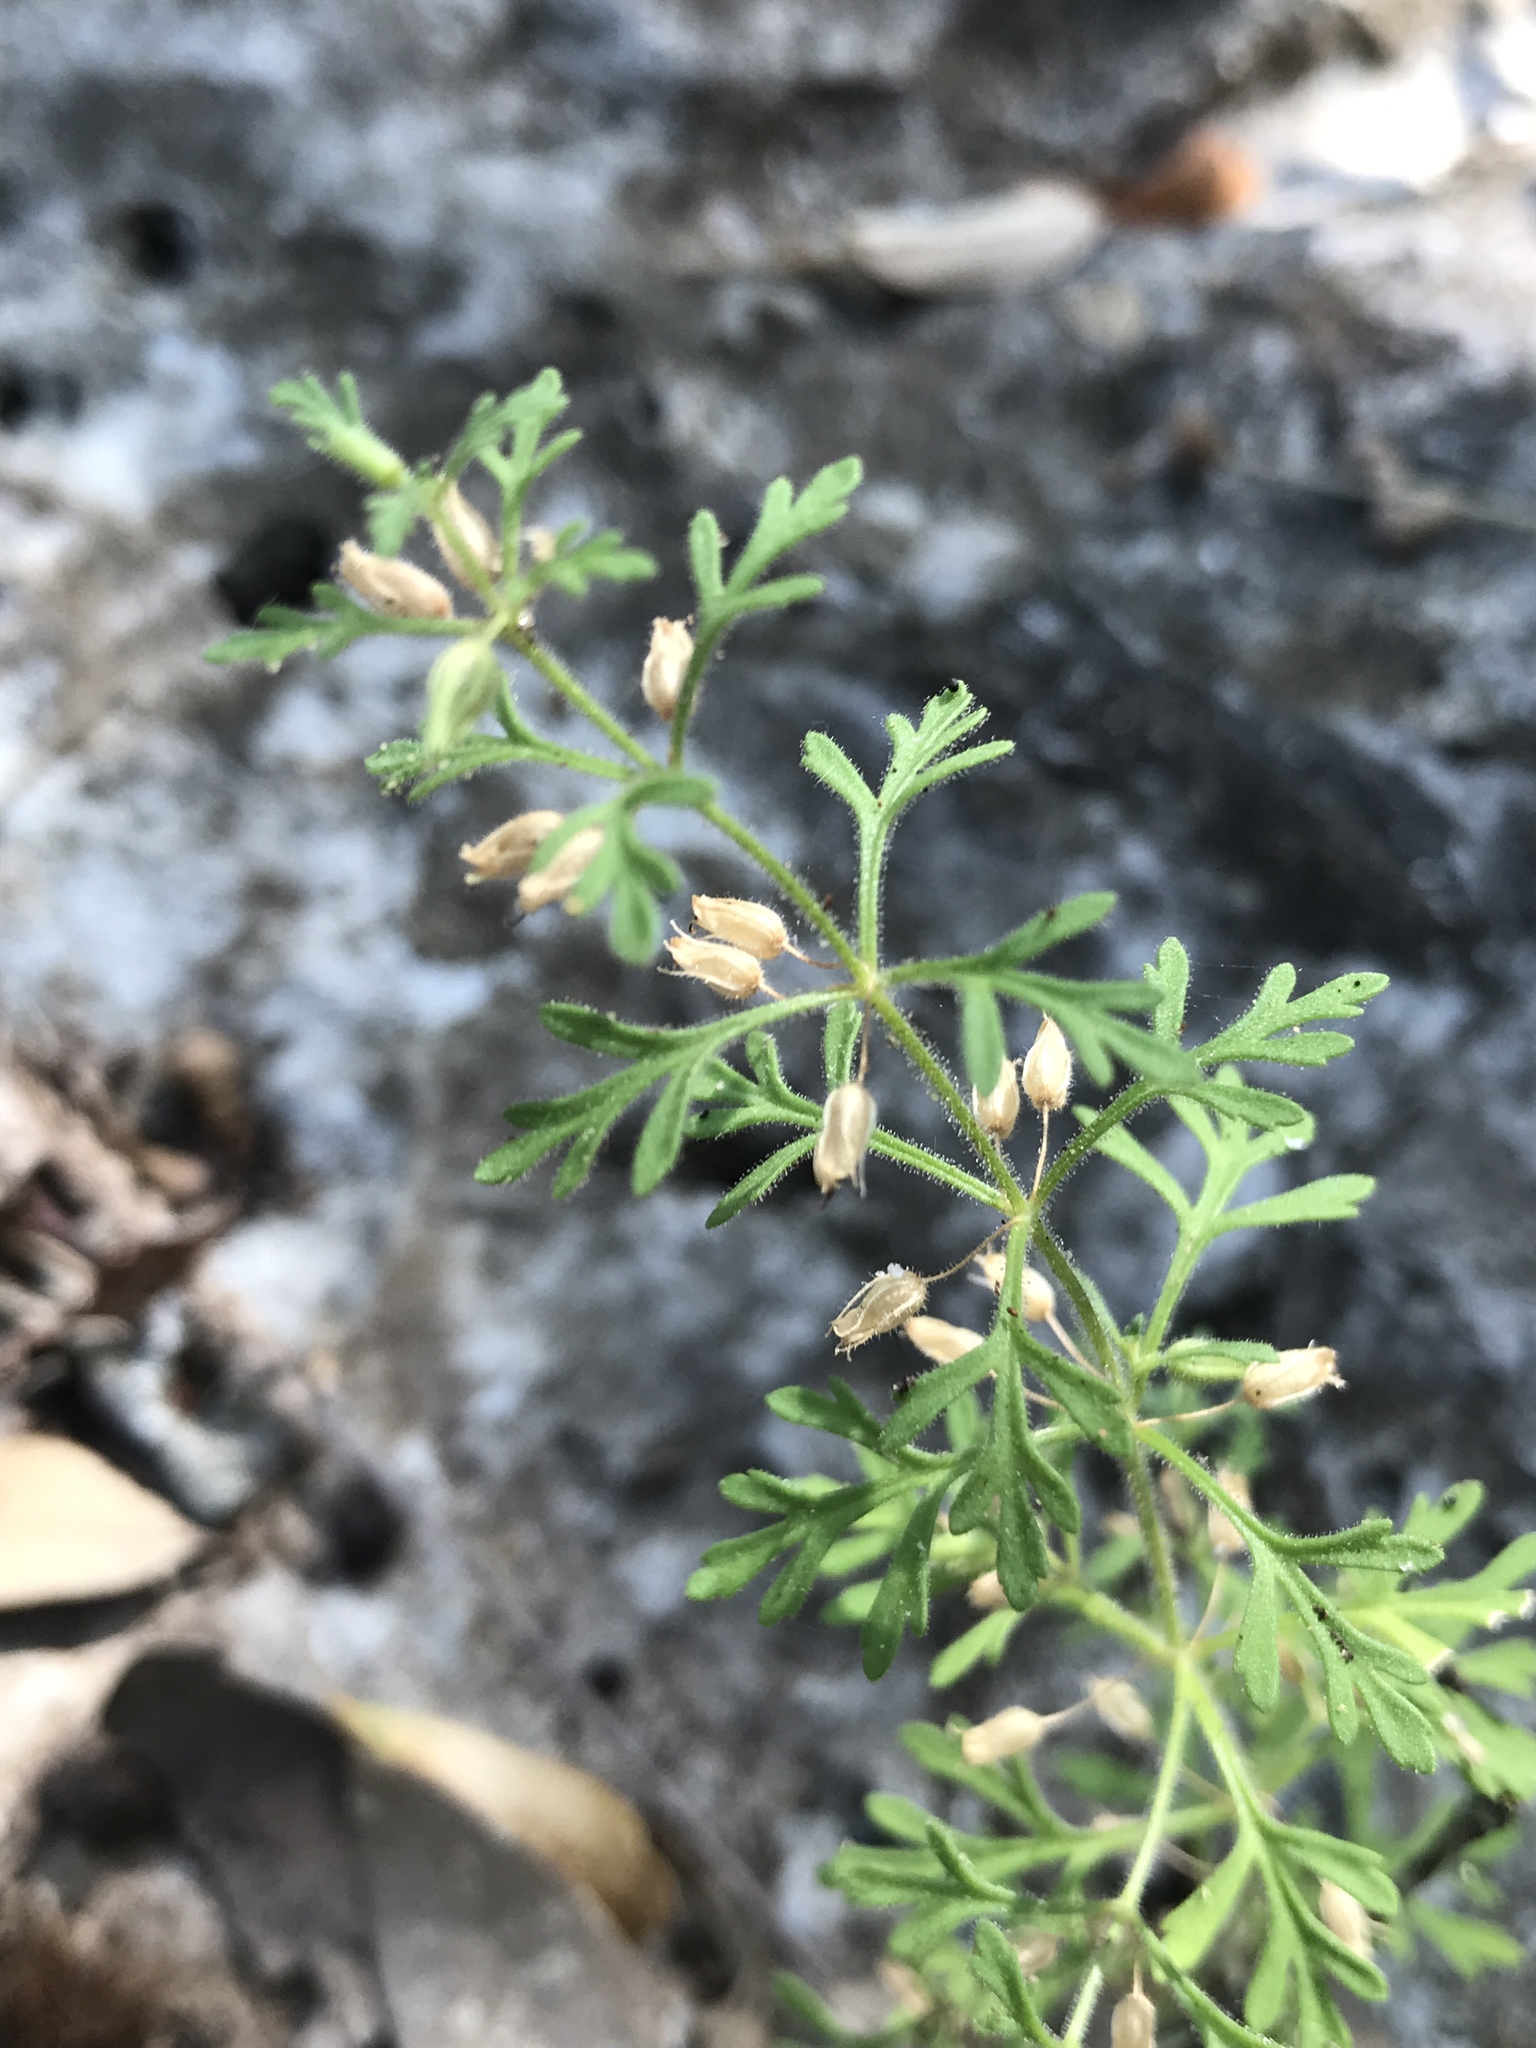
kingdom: Plantae
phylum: Tracheophyta
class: Magnoliopsida
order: Lamiales
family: Plantaginaceae
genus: Leucospora
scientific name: Leucospora multifida
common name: Narrow-leaf paleseed
